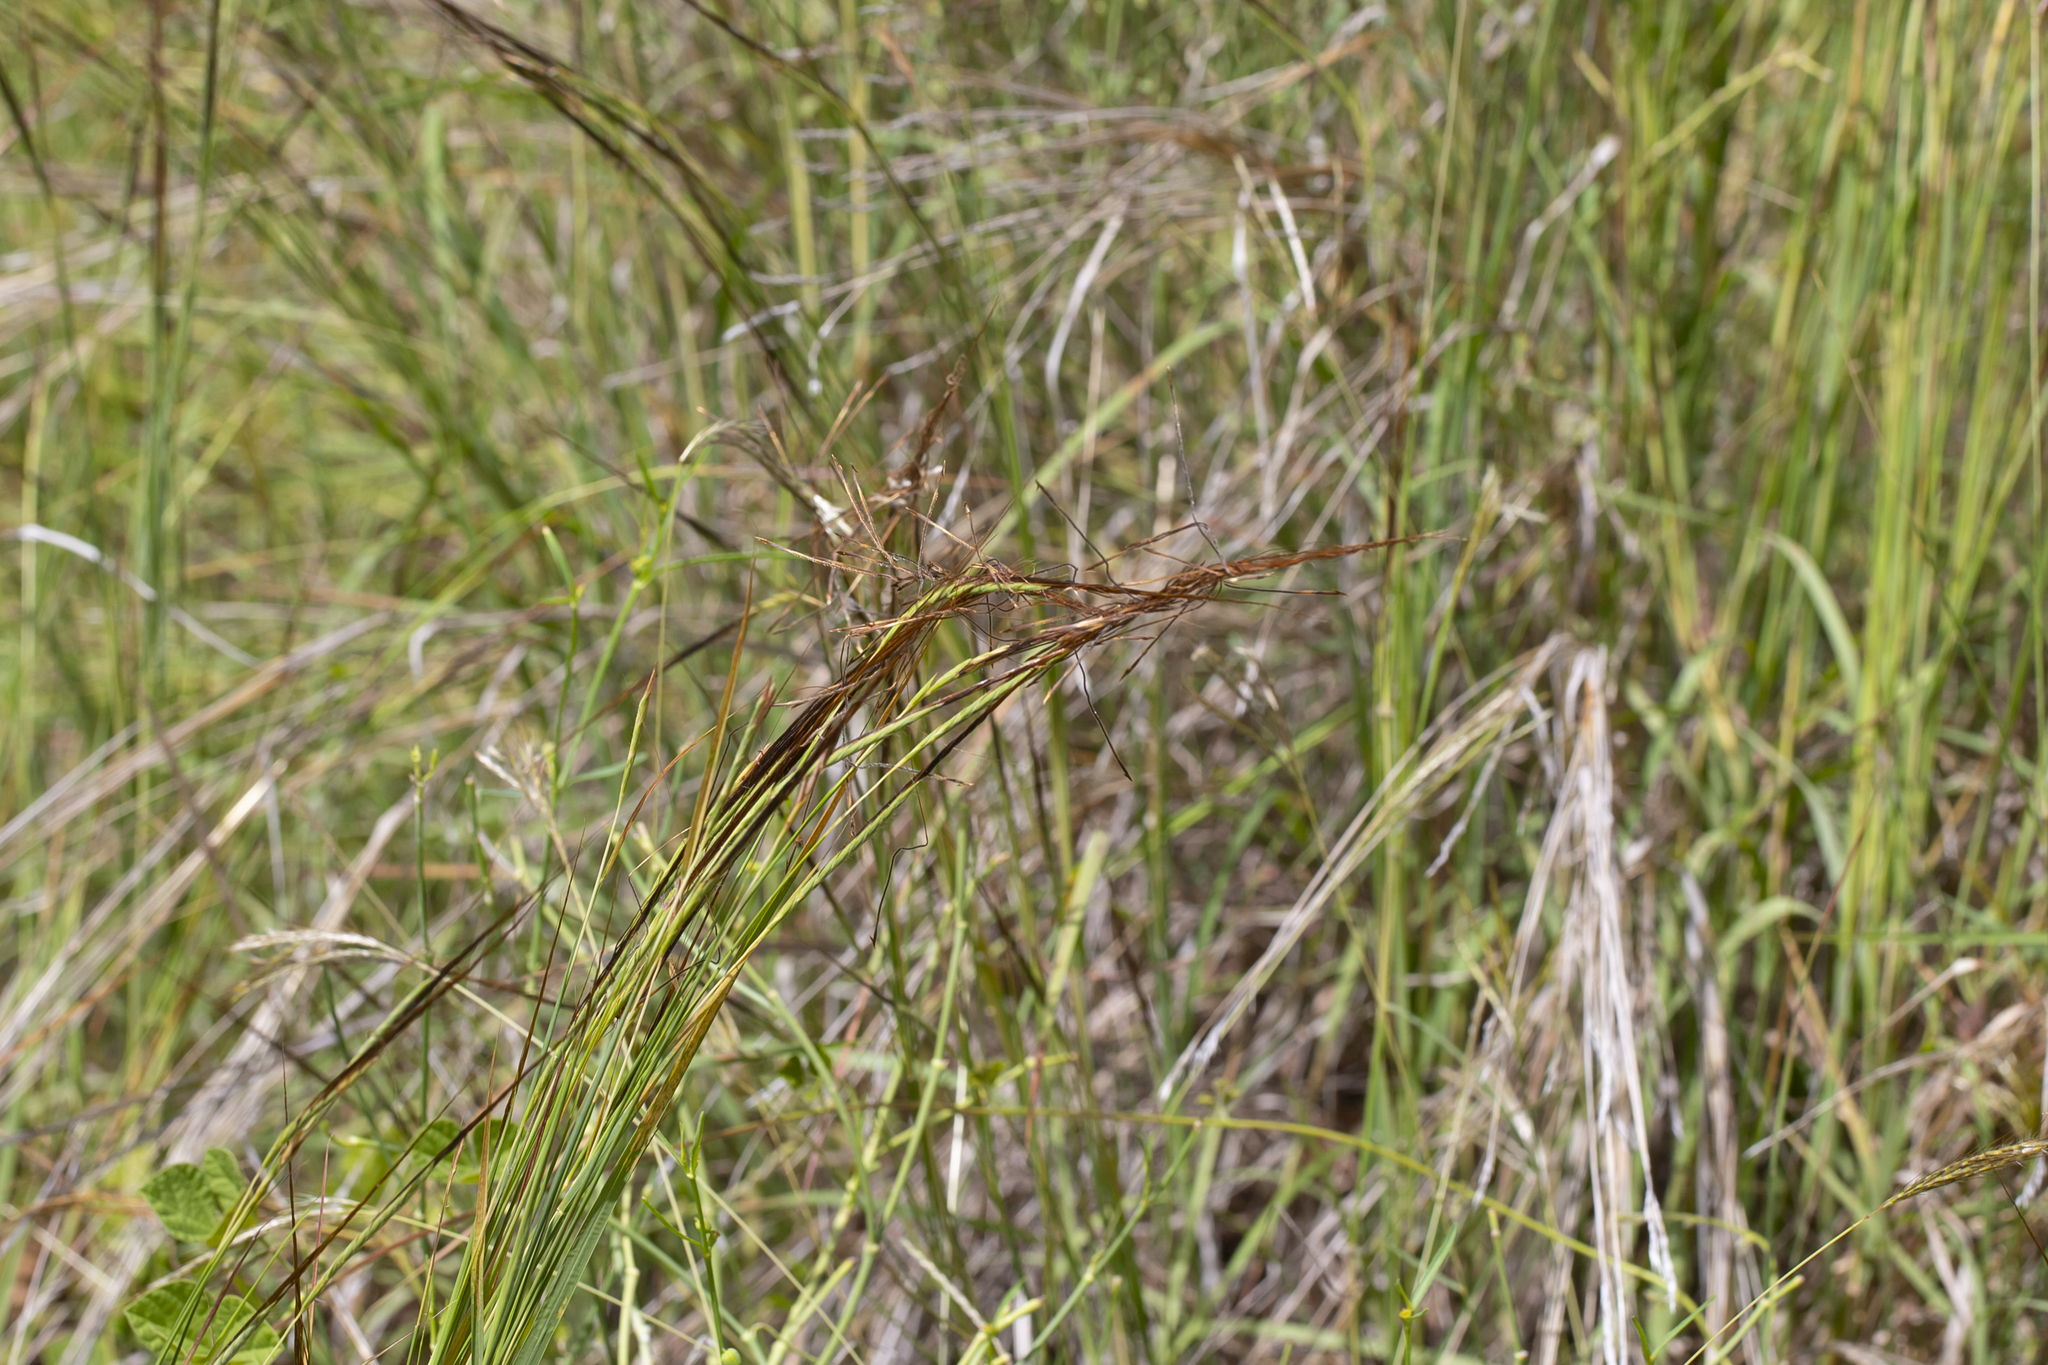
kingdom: Plantae
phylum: Tracheophyta
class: Liliopsida
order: Poales
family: Poaceae
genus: Heteropogon
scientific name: Heteropogon contortus
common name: Tanglehead
